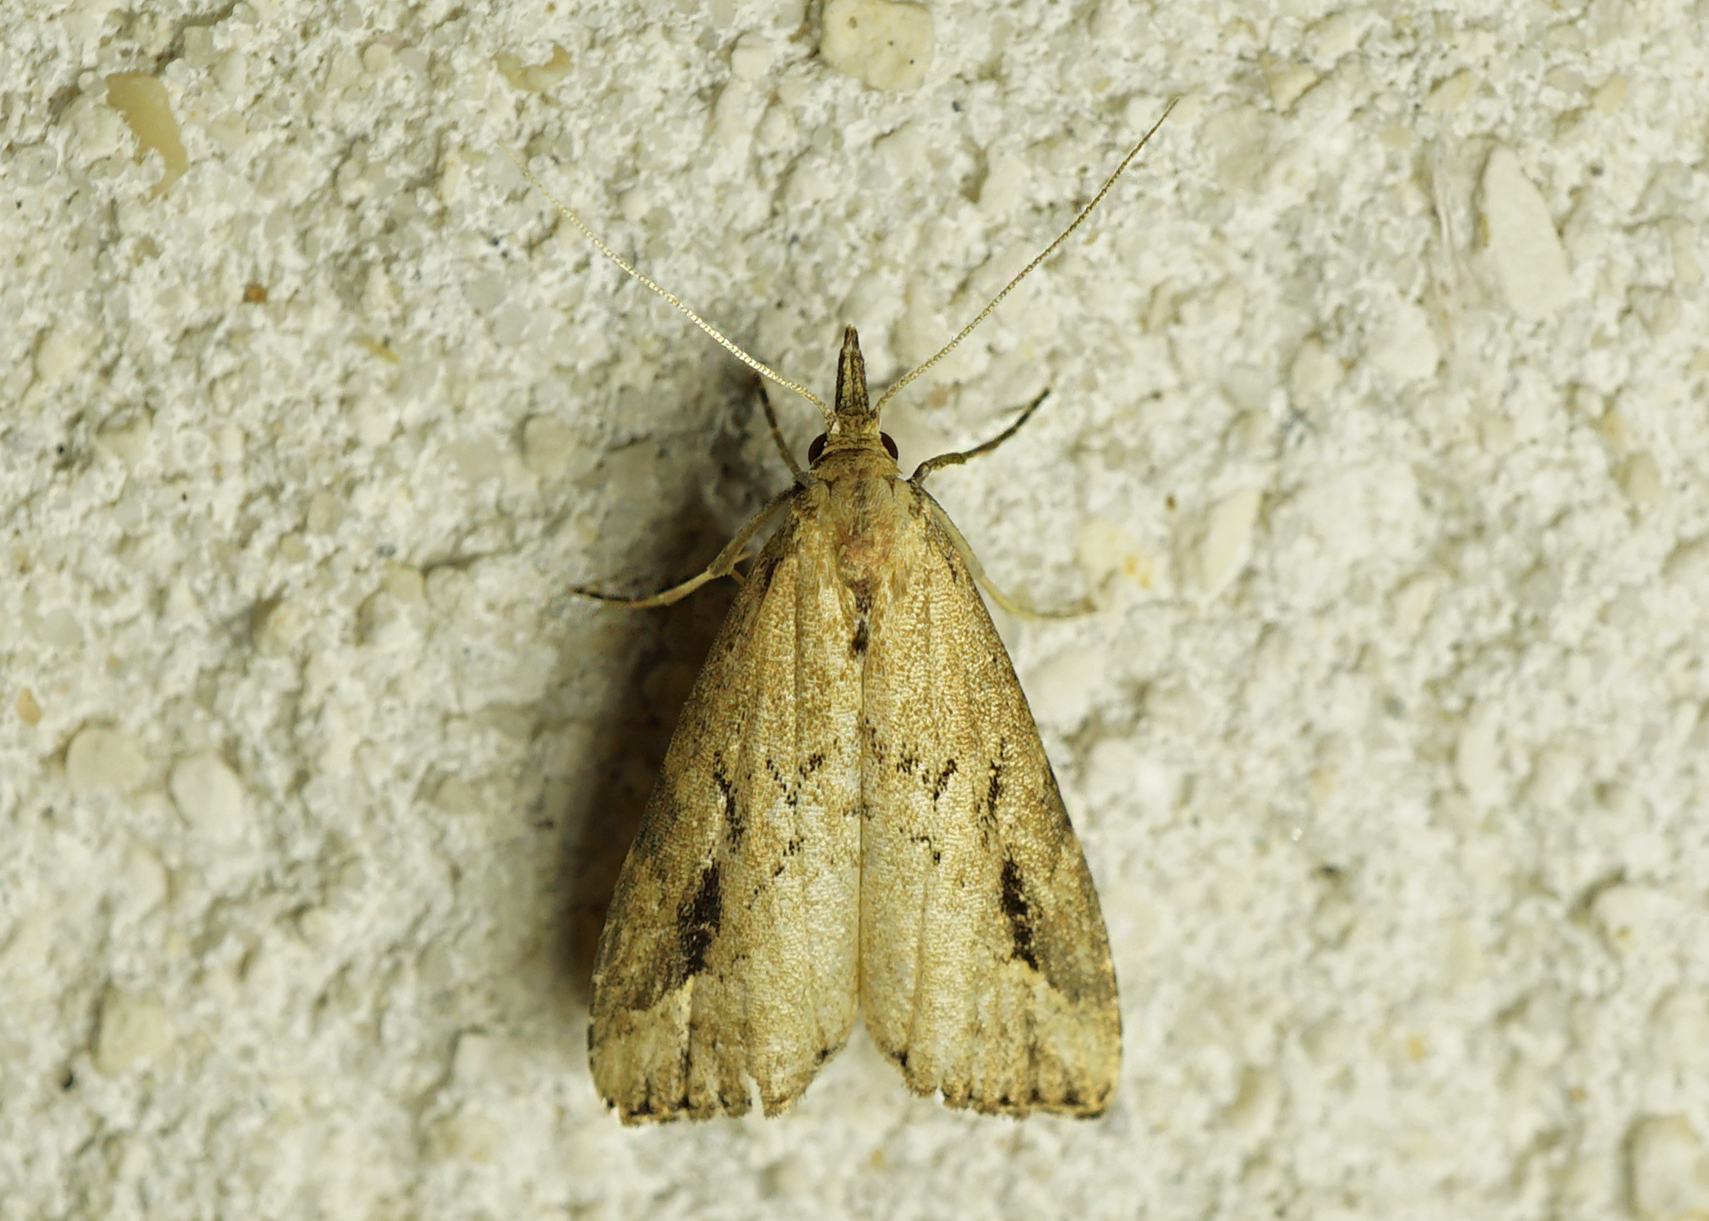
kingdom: Animalia
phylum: Arthropoda
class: Insecta
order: Lepidoptera
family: Erebidae
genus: Schrankia
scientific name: Schrankia costaestrigalis
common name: Pinion-streaked snout
